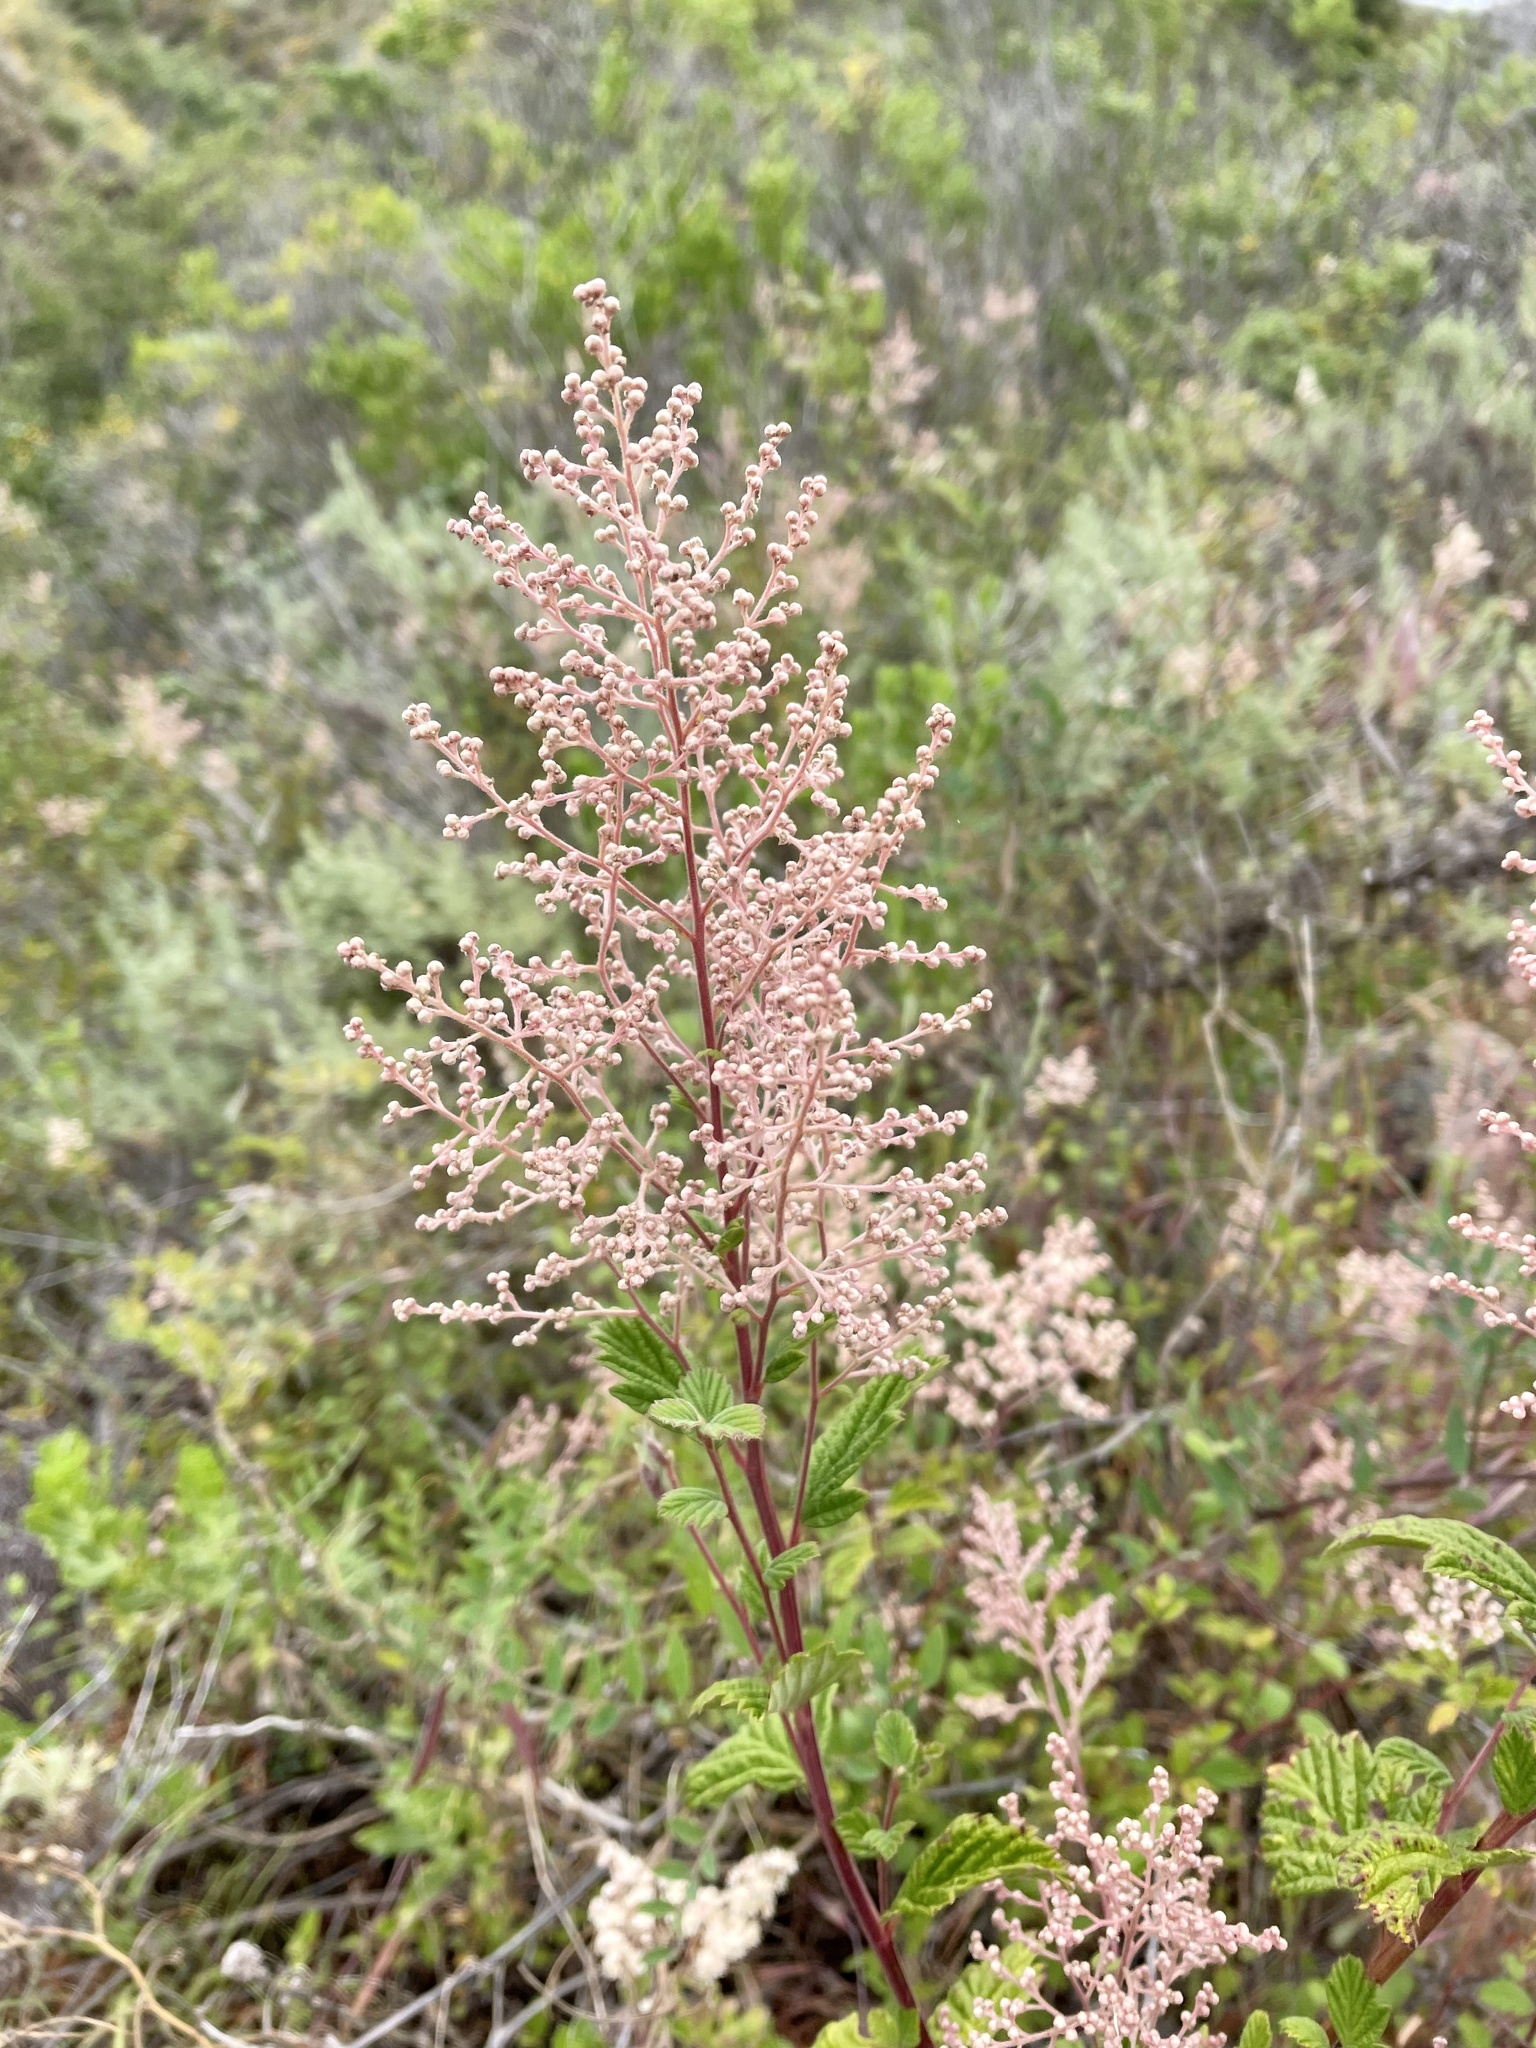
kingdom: Plantae
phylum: Tracheophyta
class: Magnoliopsida
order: Rosales
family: Rosaceae
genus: Holodiscus
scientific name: Holodiscus discolor
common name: Oceanspray
